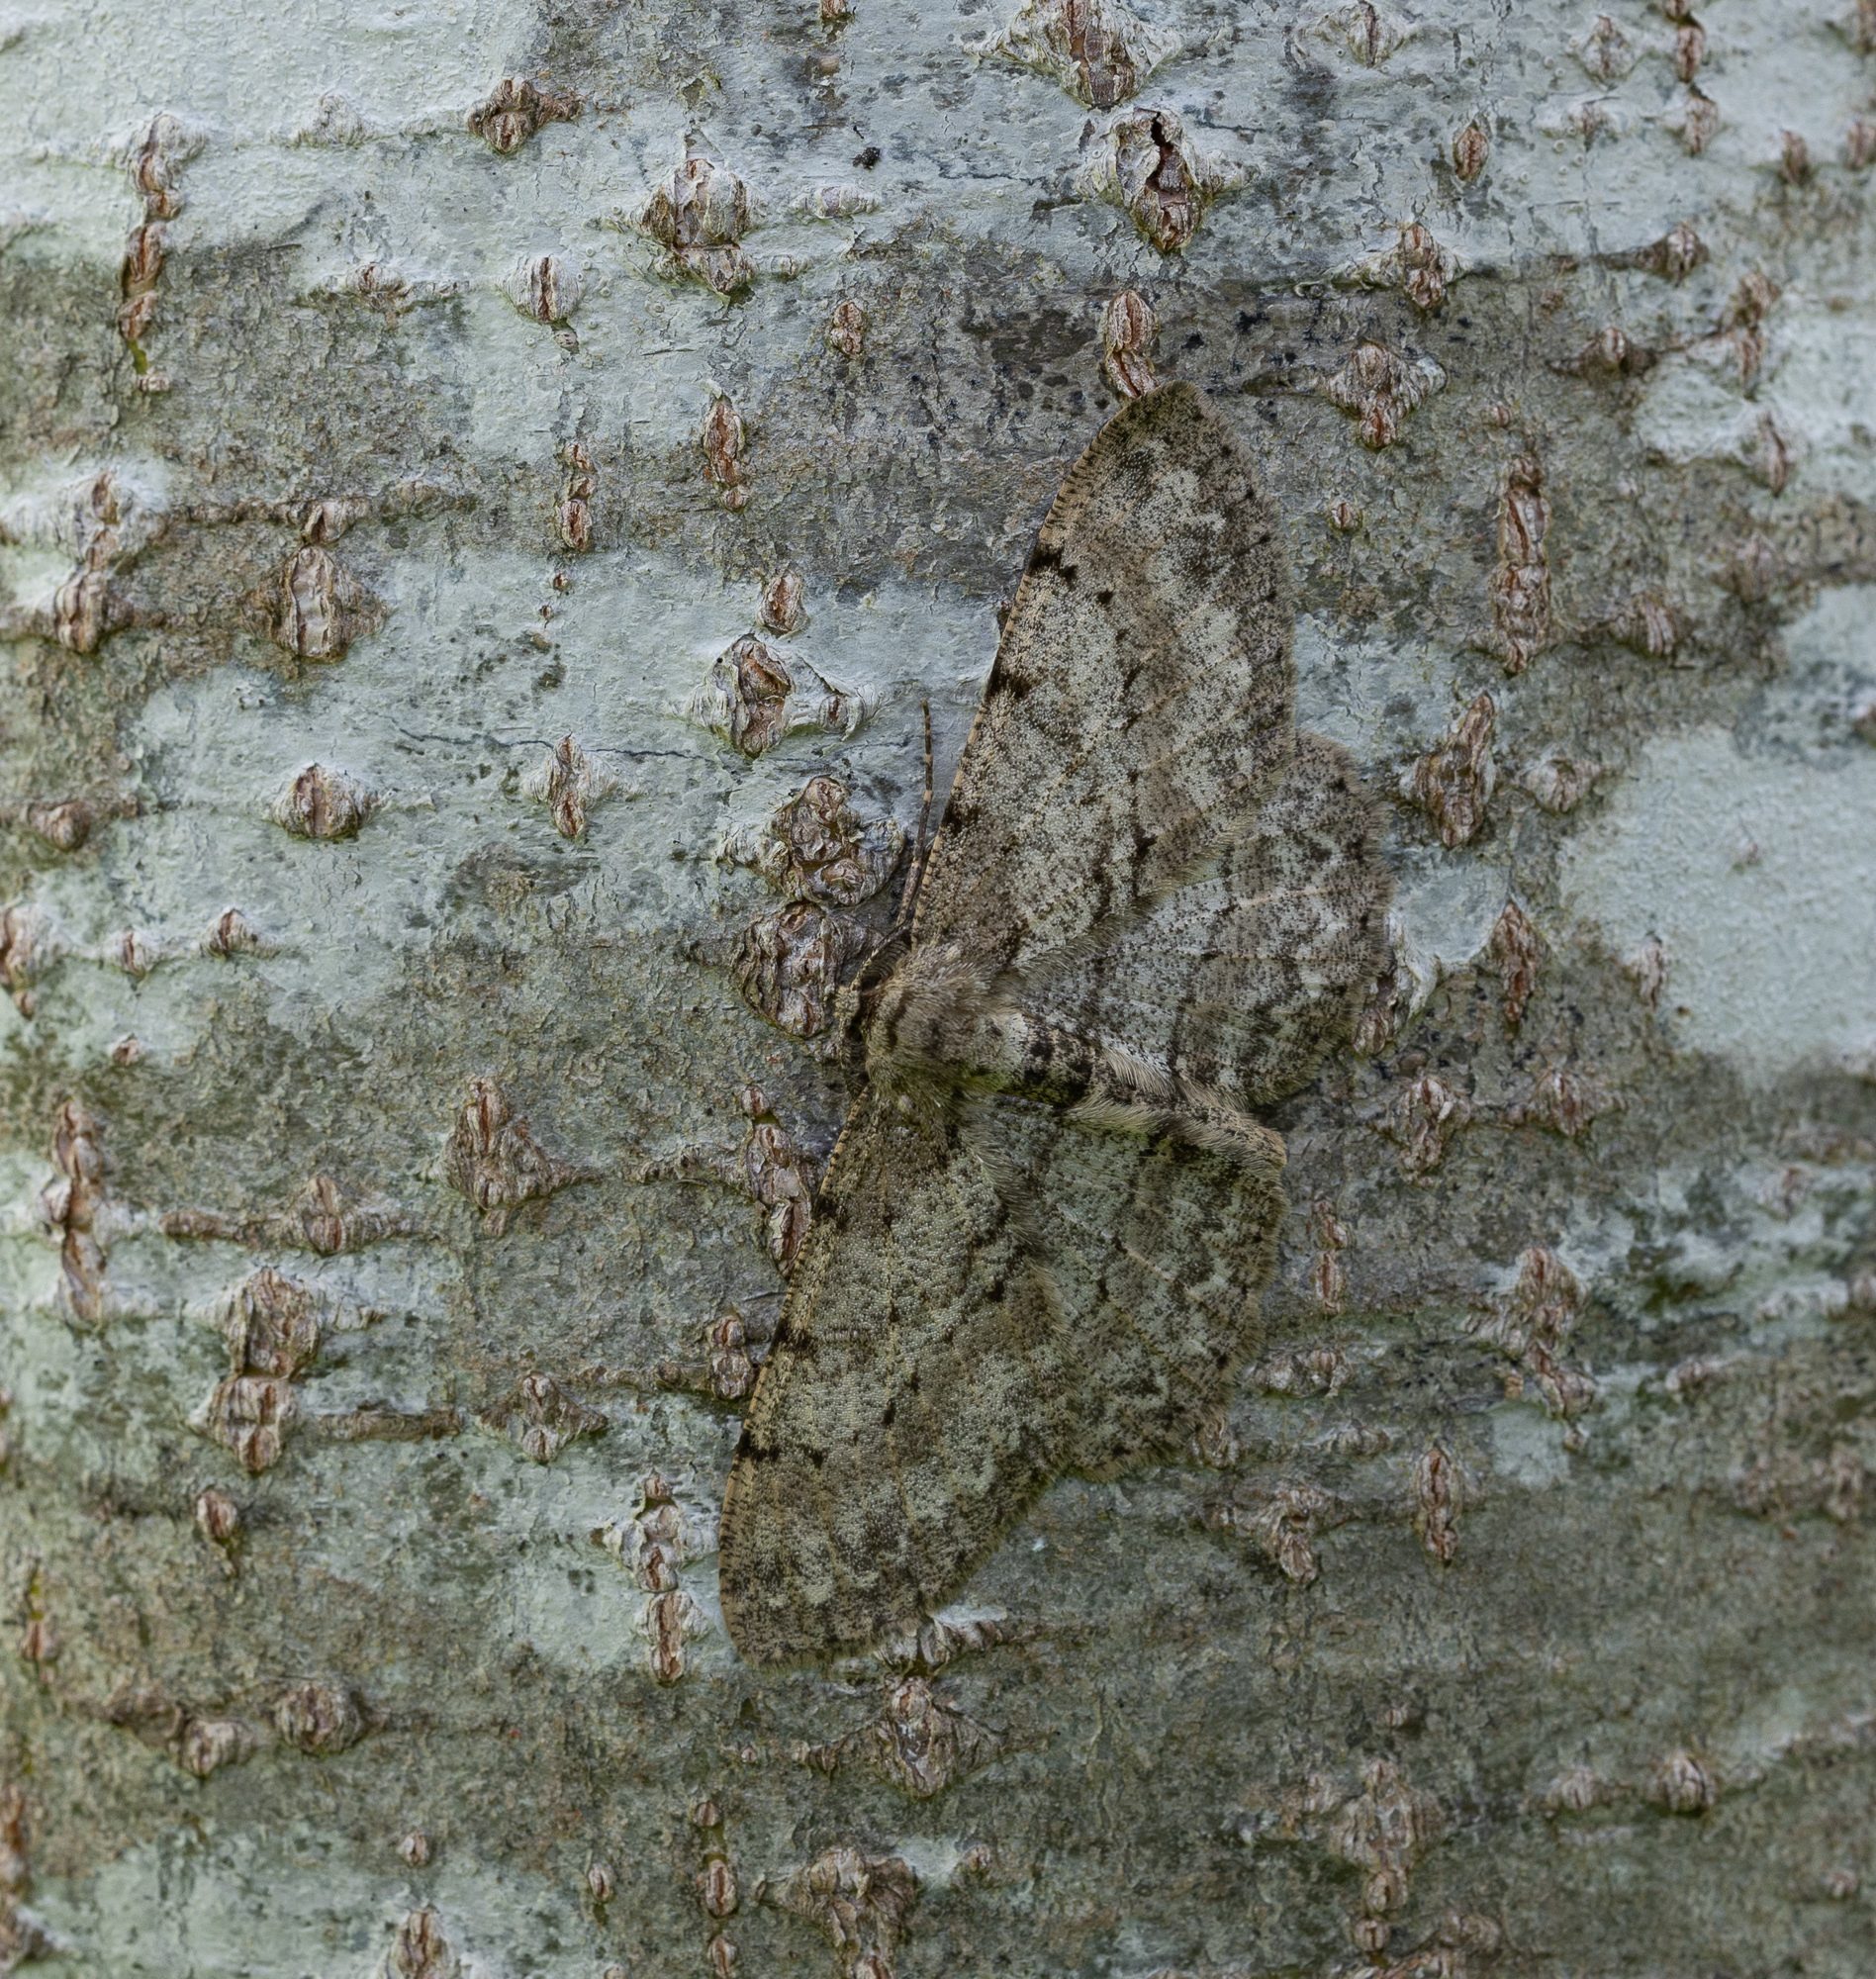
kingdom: Animalia
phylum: Arthropoda
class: Insecta
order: Lepidoptera
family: Geometridae
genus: Hypomecis
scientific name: Hypomecis punctinalis
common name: Pale oak beauty
